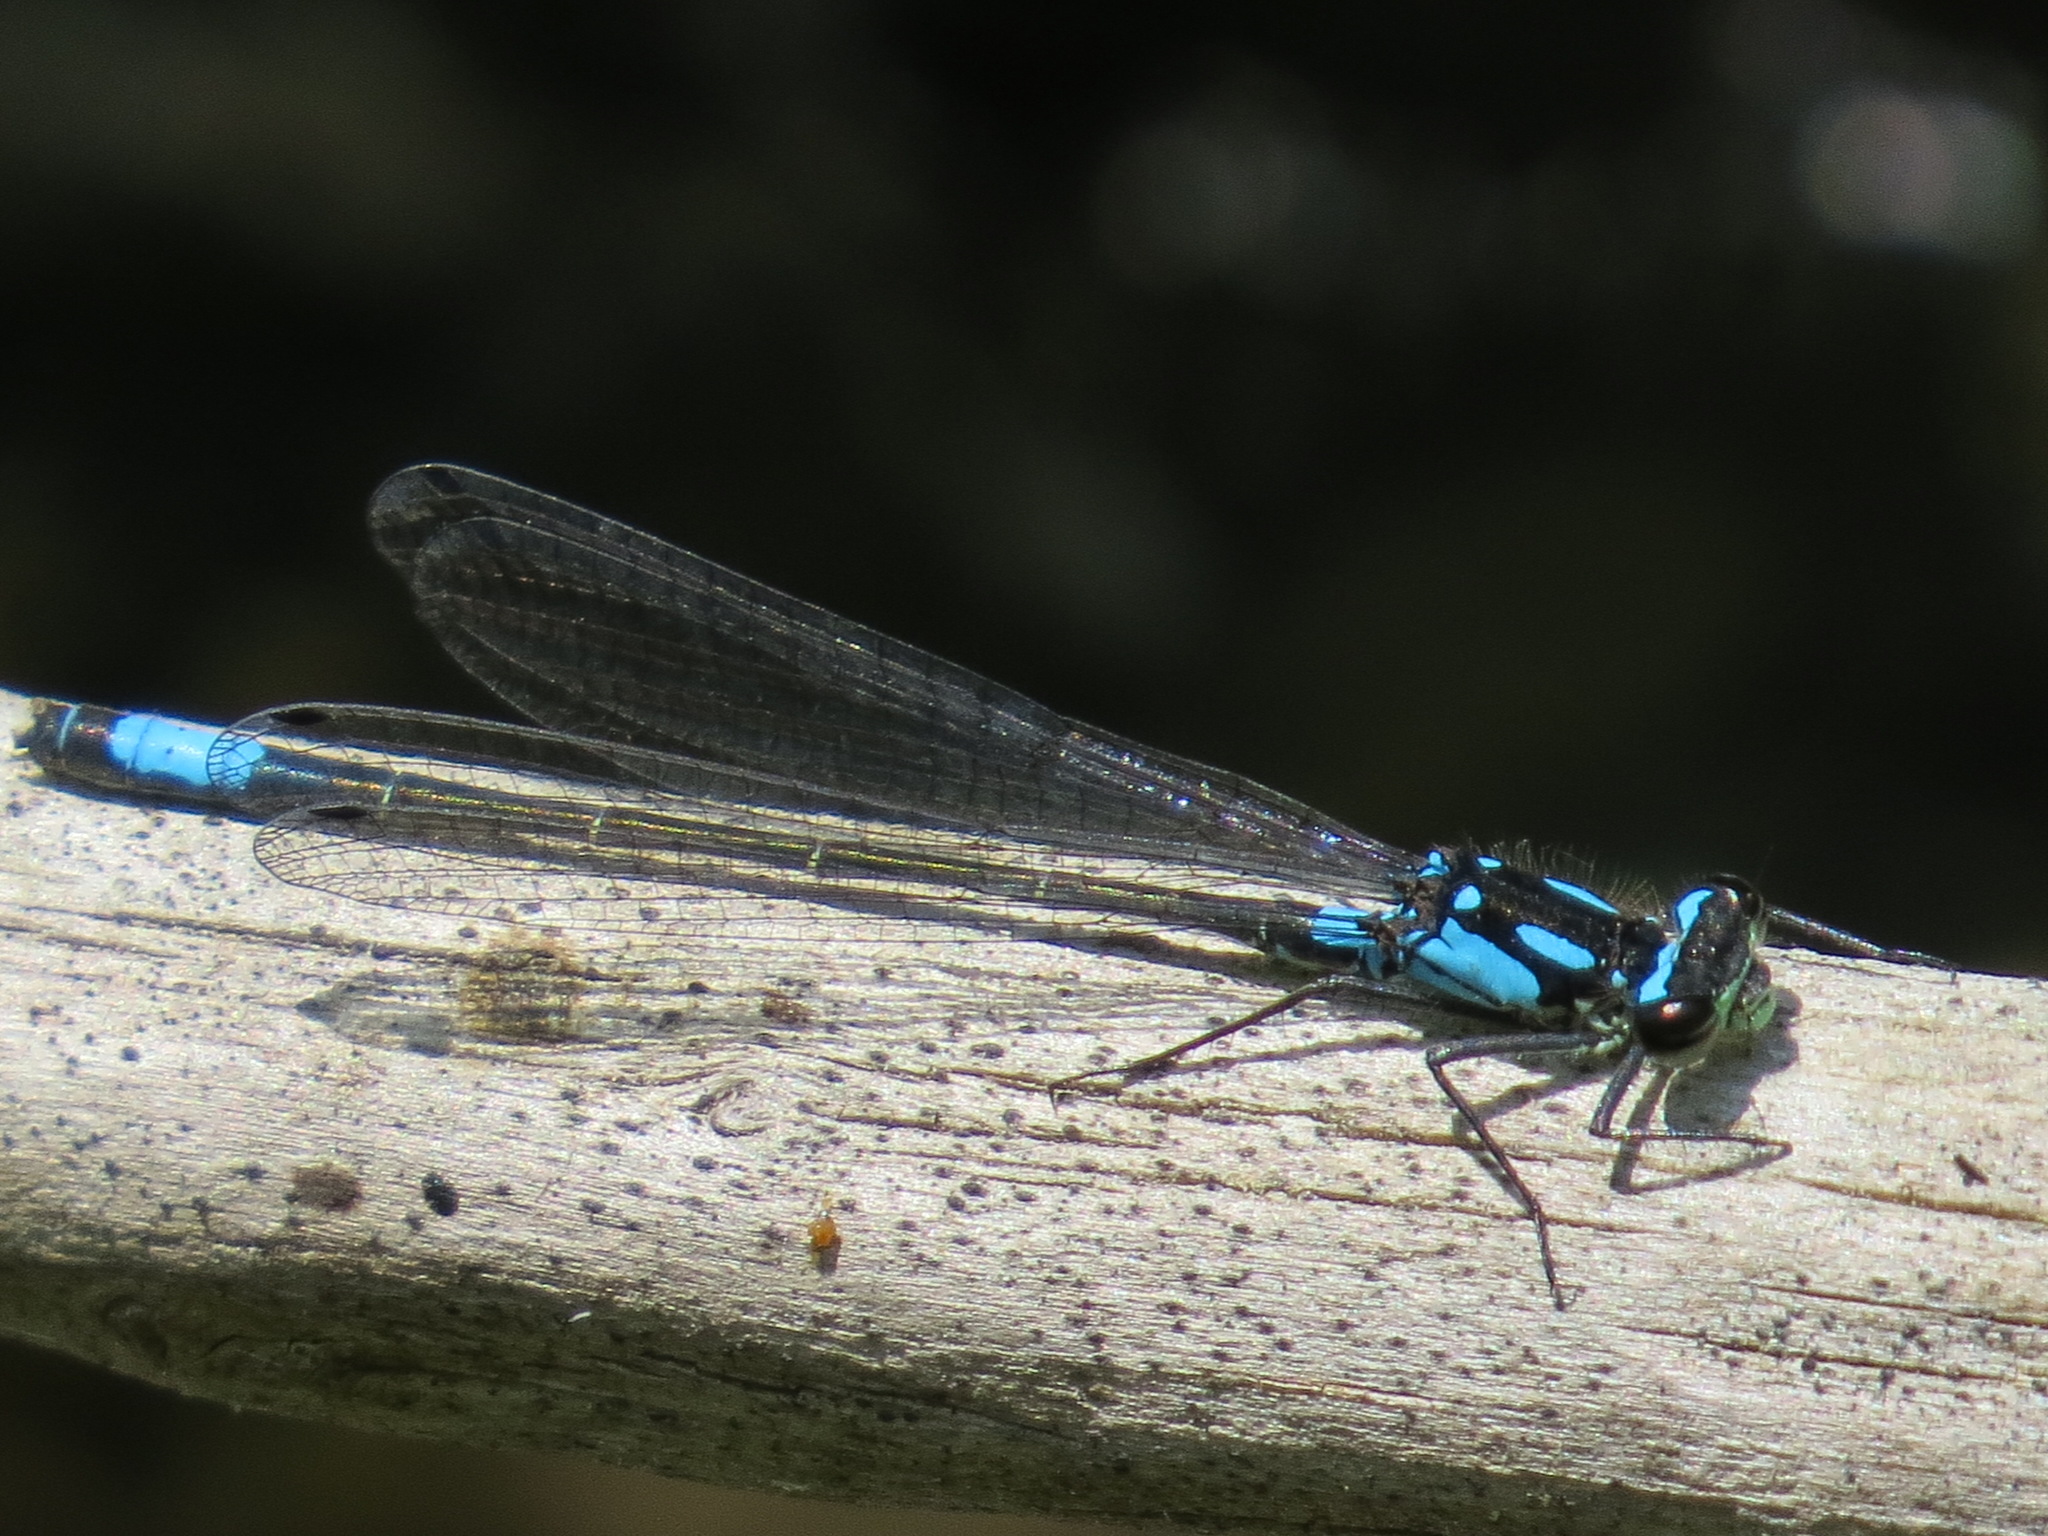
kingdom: Animalia
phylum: Arthropoda
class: Insecta
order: Odonata
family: Coenagrionidae
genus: Zoniagrion
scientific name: Zoniagrion exclamationis
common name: Exclamation damsel
